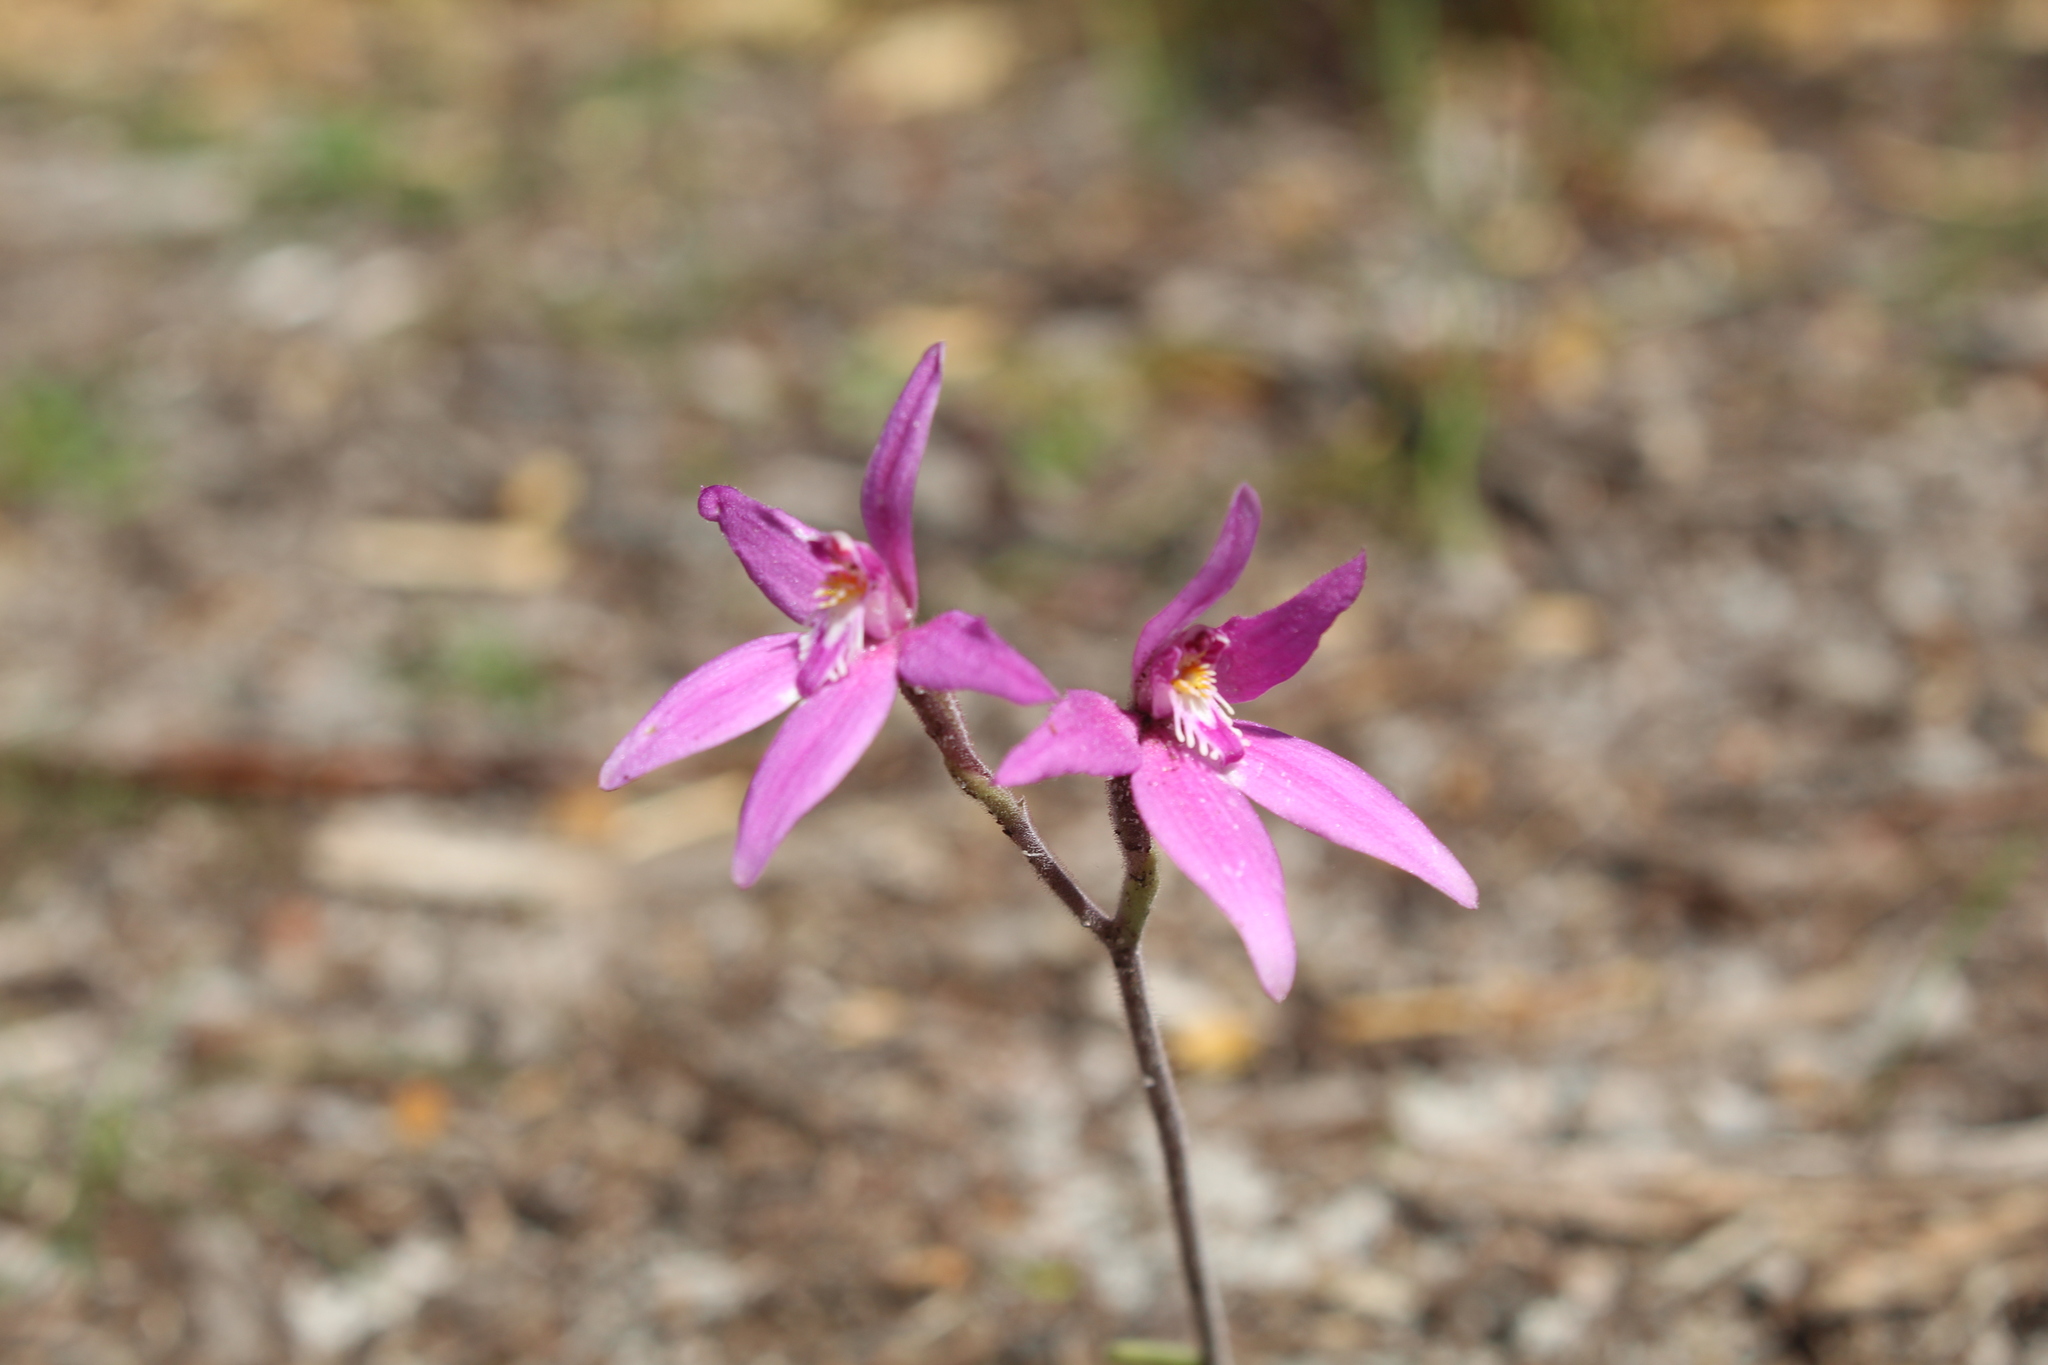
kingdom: Plantae
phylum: Tracheophyta
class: Liliopsida
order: Asparagales
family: Orchidaceae
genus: Caladenia
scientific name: Caladenia latifolia
